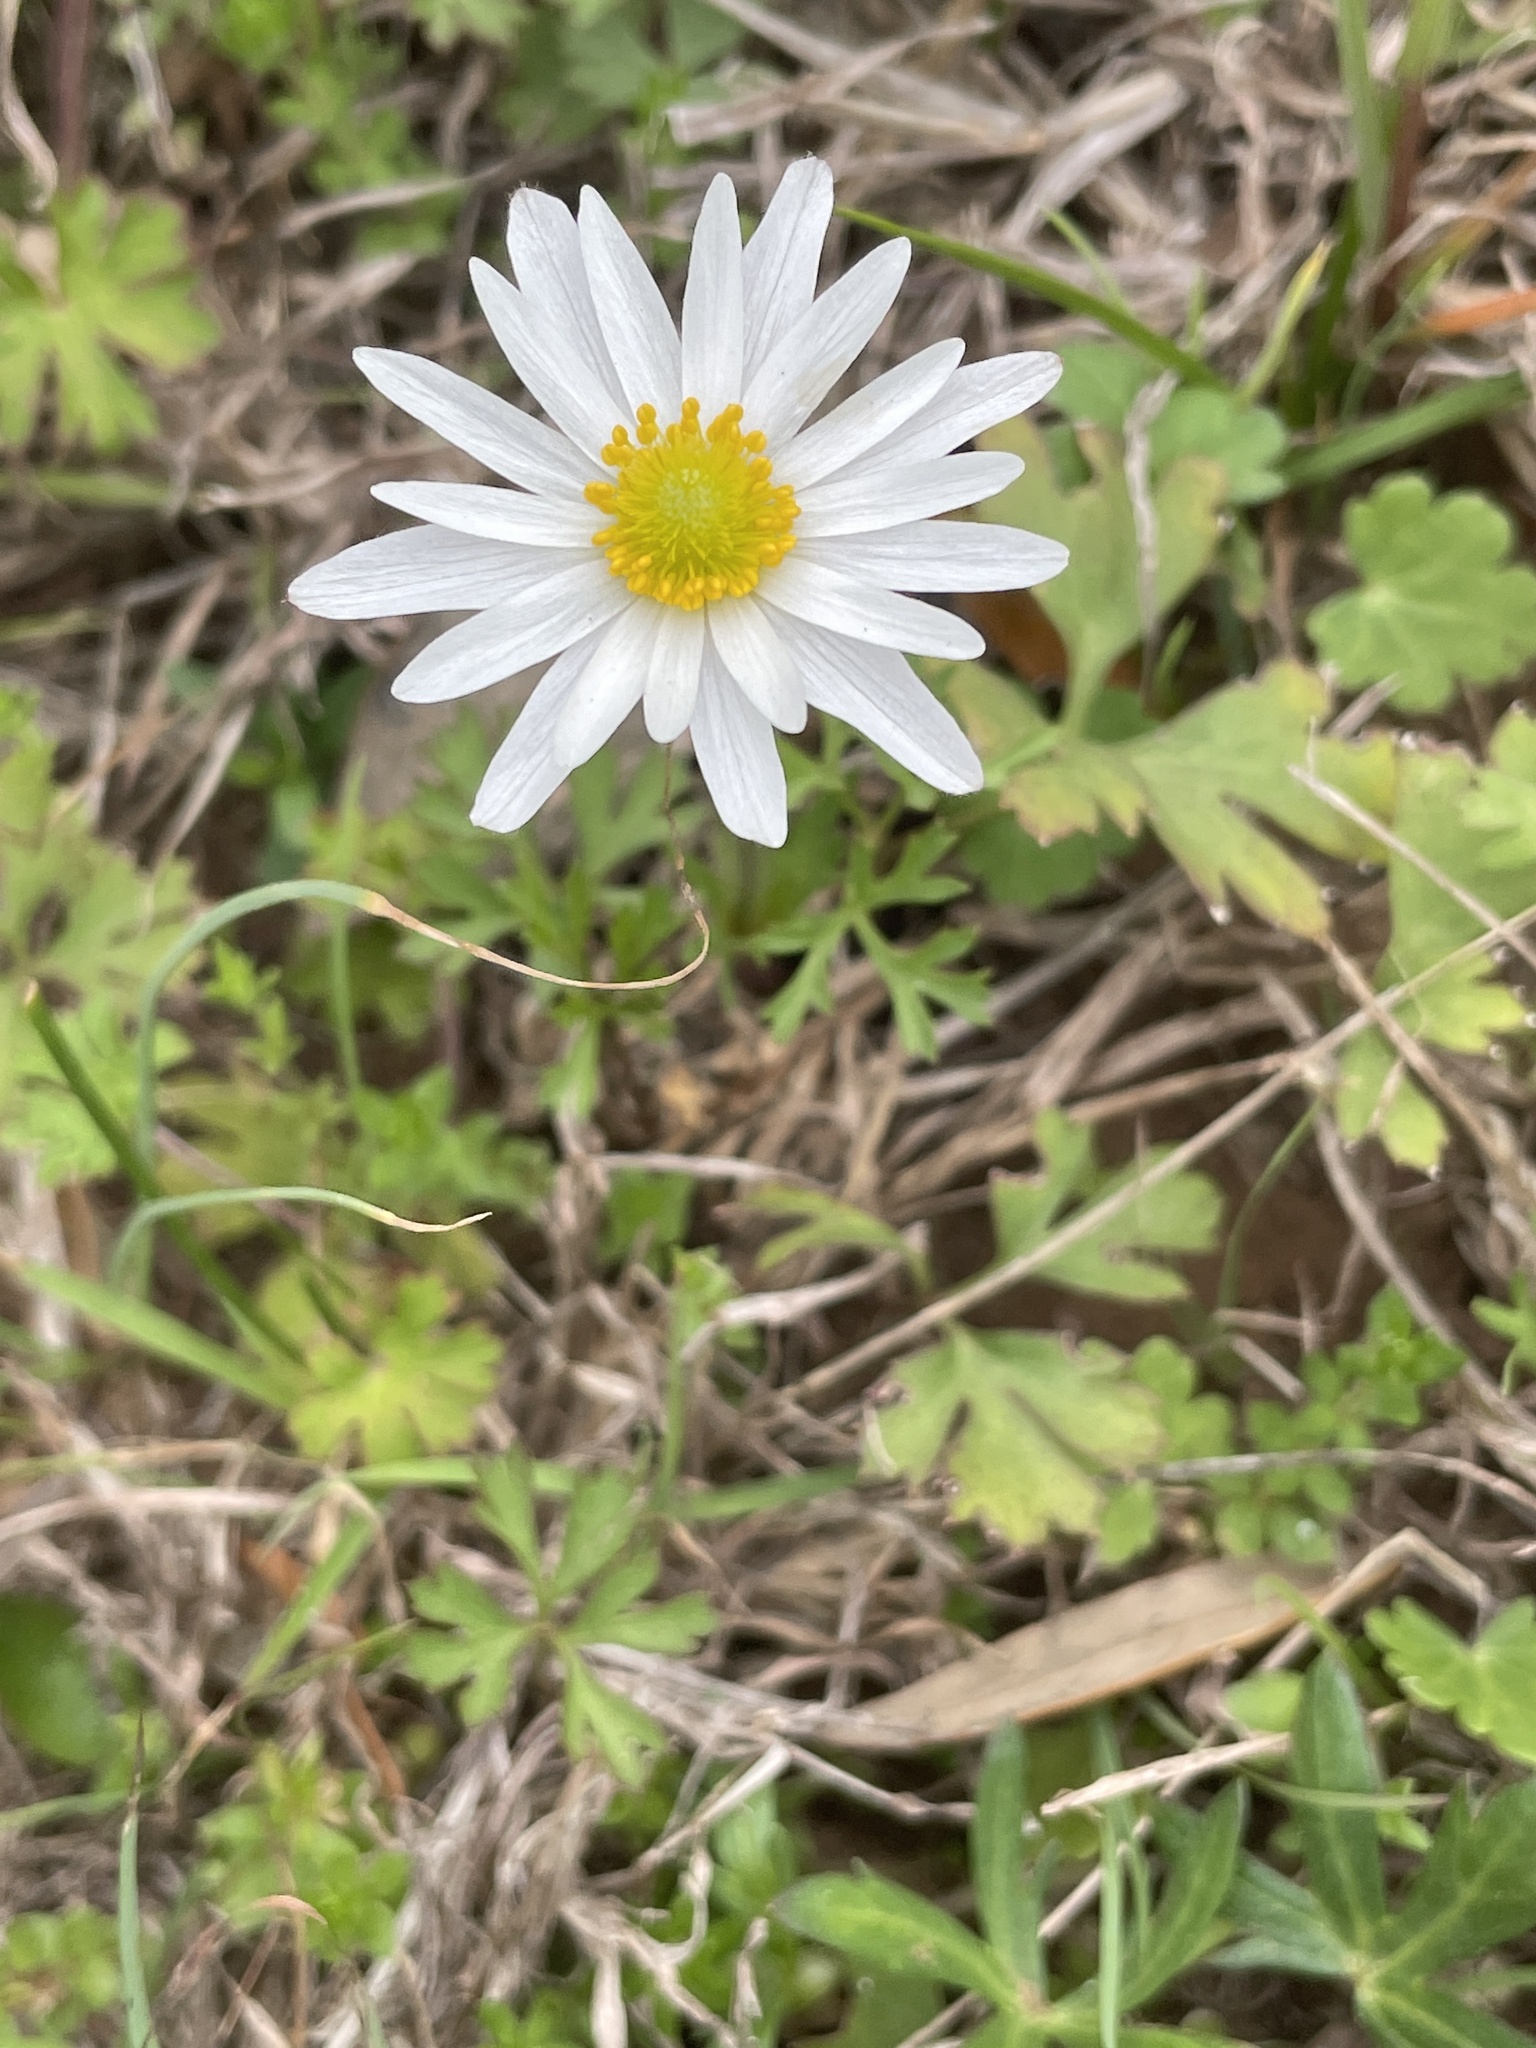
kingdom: Plantae
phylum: Tracheophyta
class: Magnoliopsida
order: Ranunculales
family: Ranunculaceae
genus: Anemone
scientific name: Anemone caroliniana
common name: Carolina anemone
